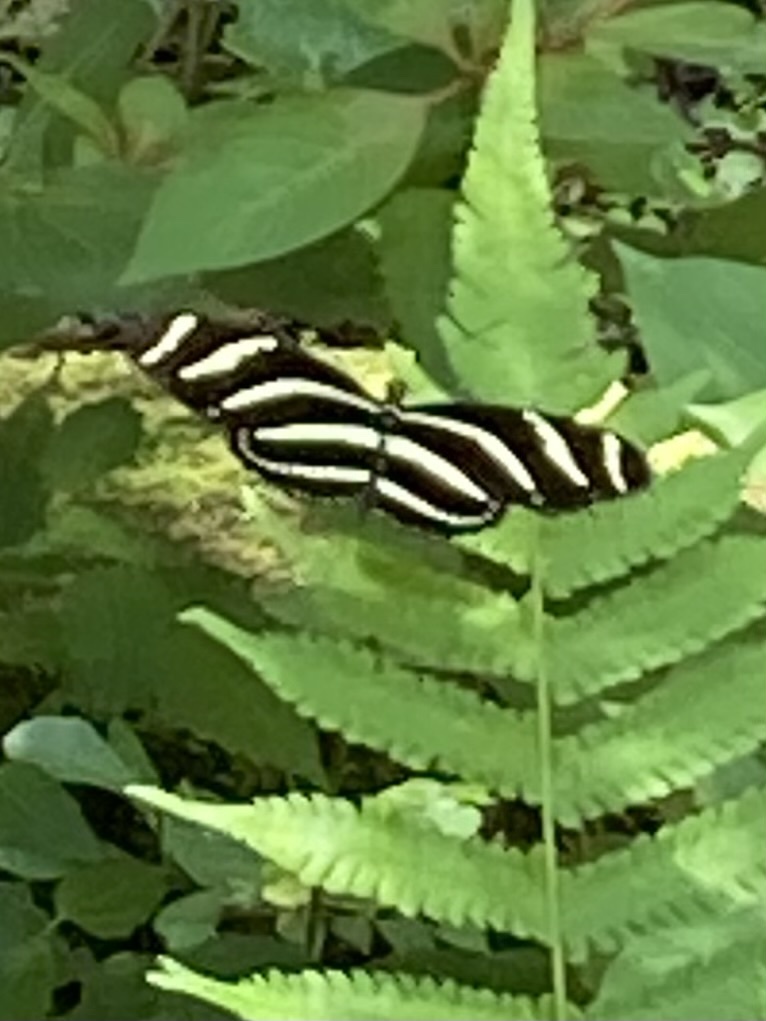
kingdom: Animalia
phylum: Arthropoda
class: Insecta
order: Lepidoptera
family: Nymphalidae
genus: Heliconius
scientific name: Heliconius charithonia
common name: Zebra long wing
